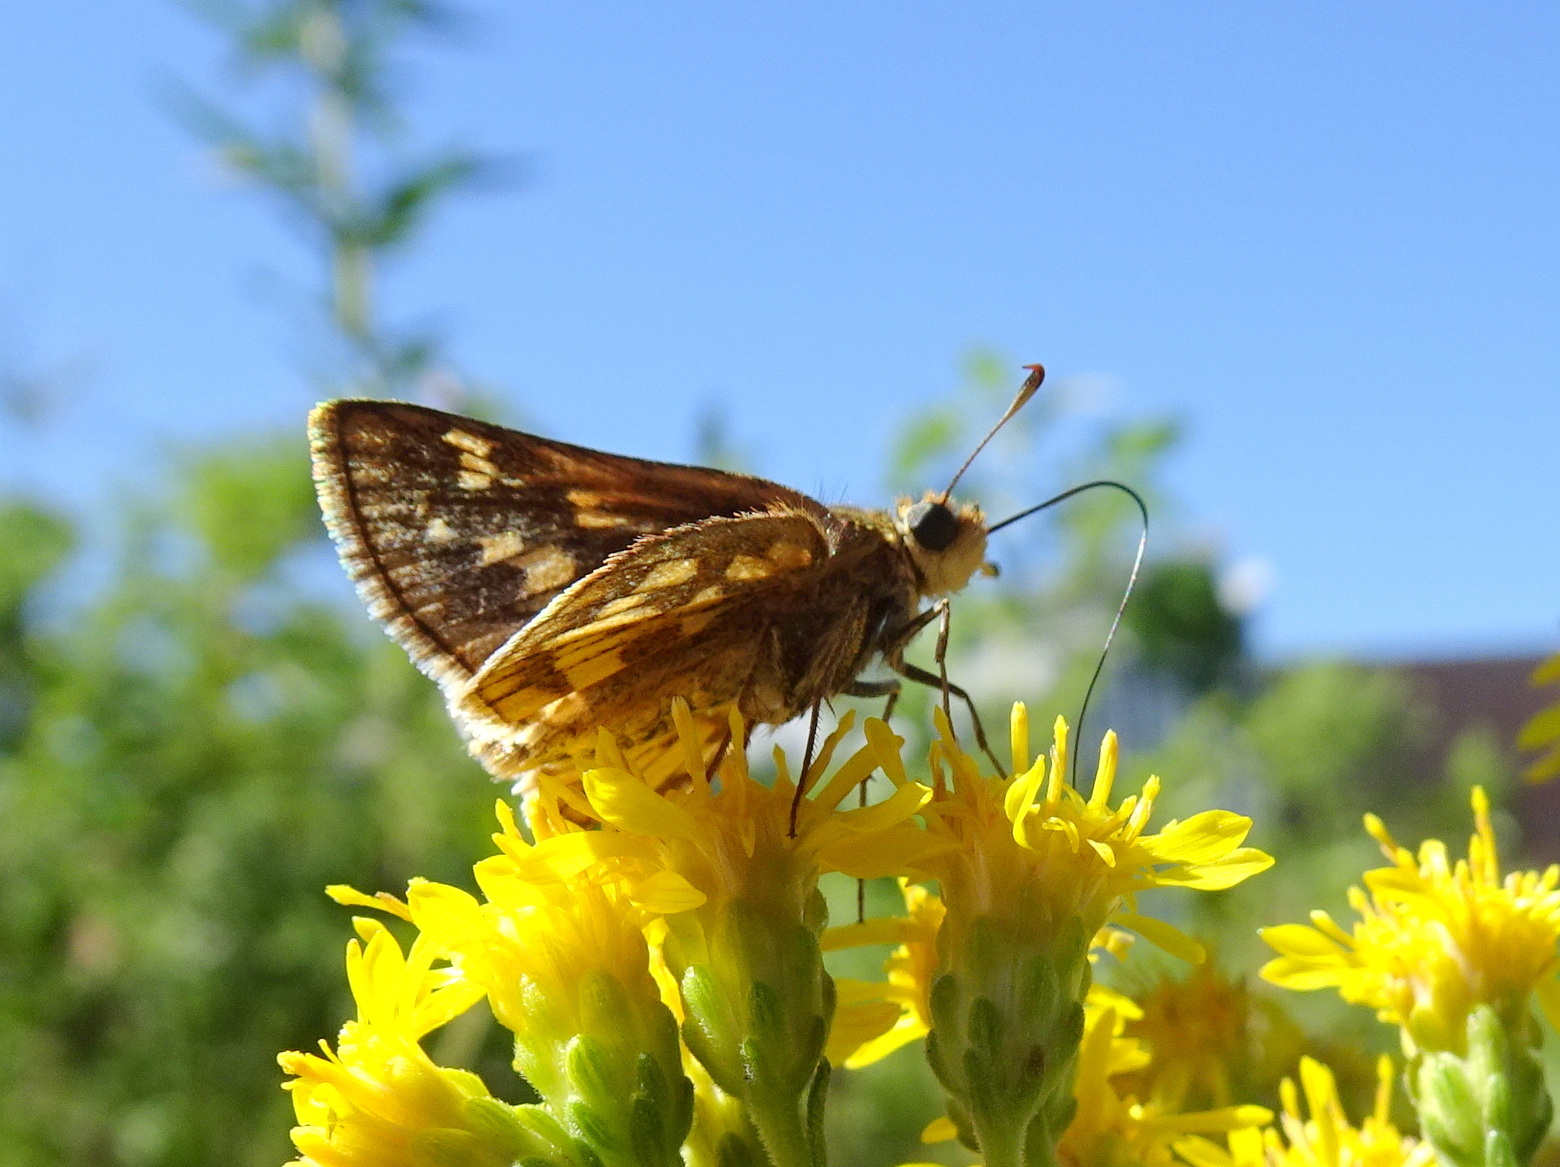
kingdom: Animalia
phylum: Arthropoda
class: Insecta
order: Lepidoptera
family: Hesperiidae
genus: Polites
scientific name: Polites coras
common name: Peck's skipper
